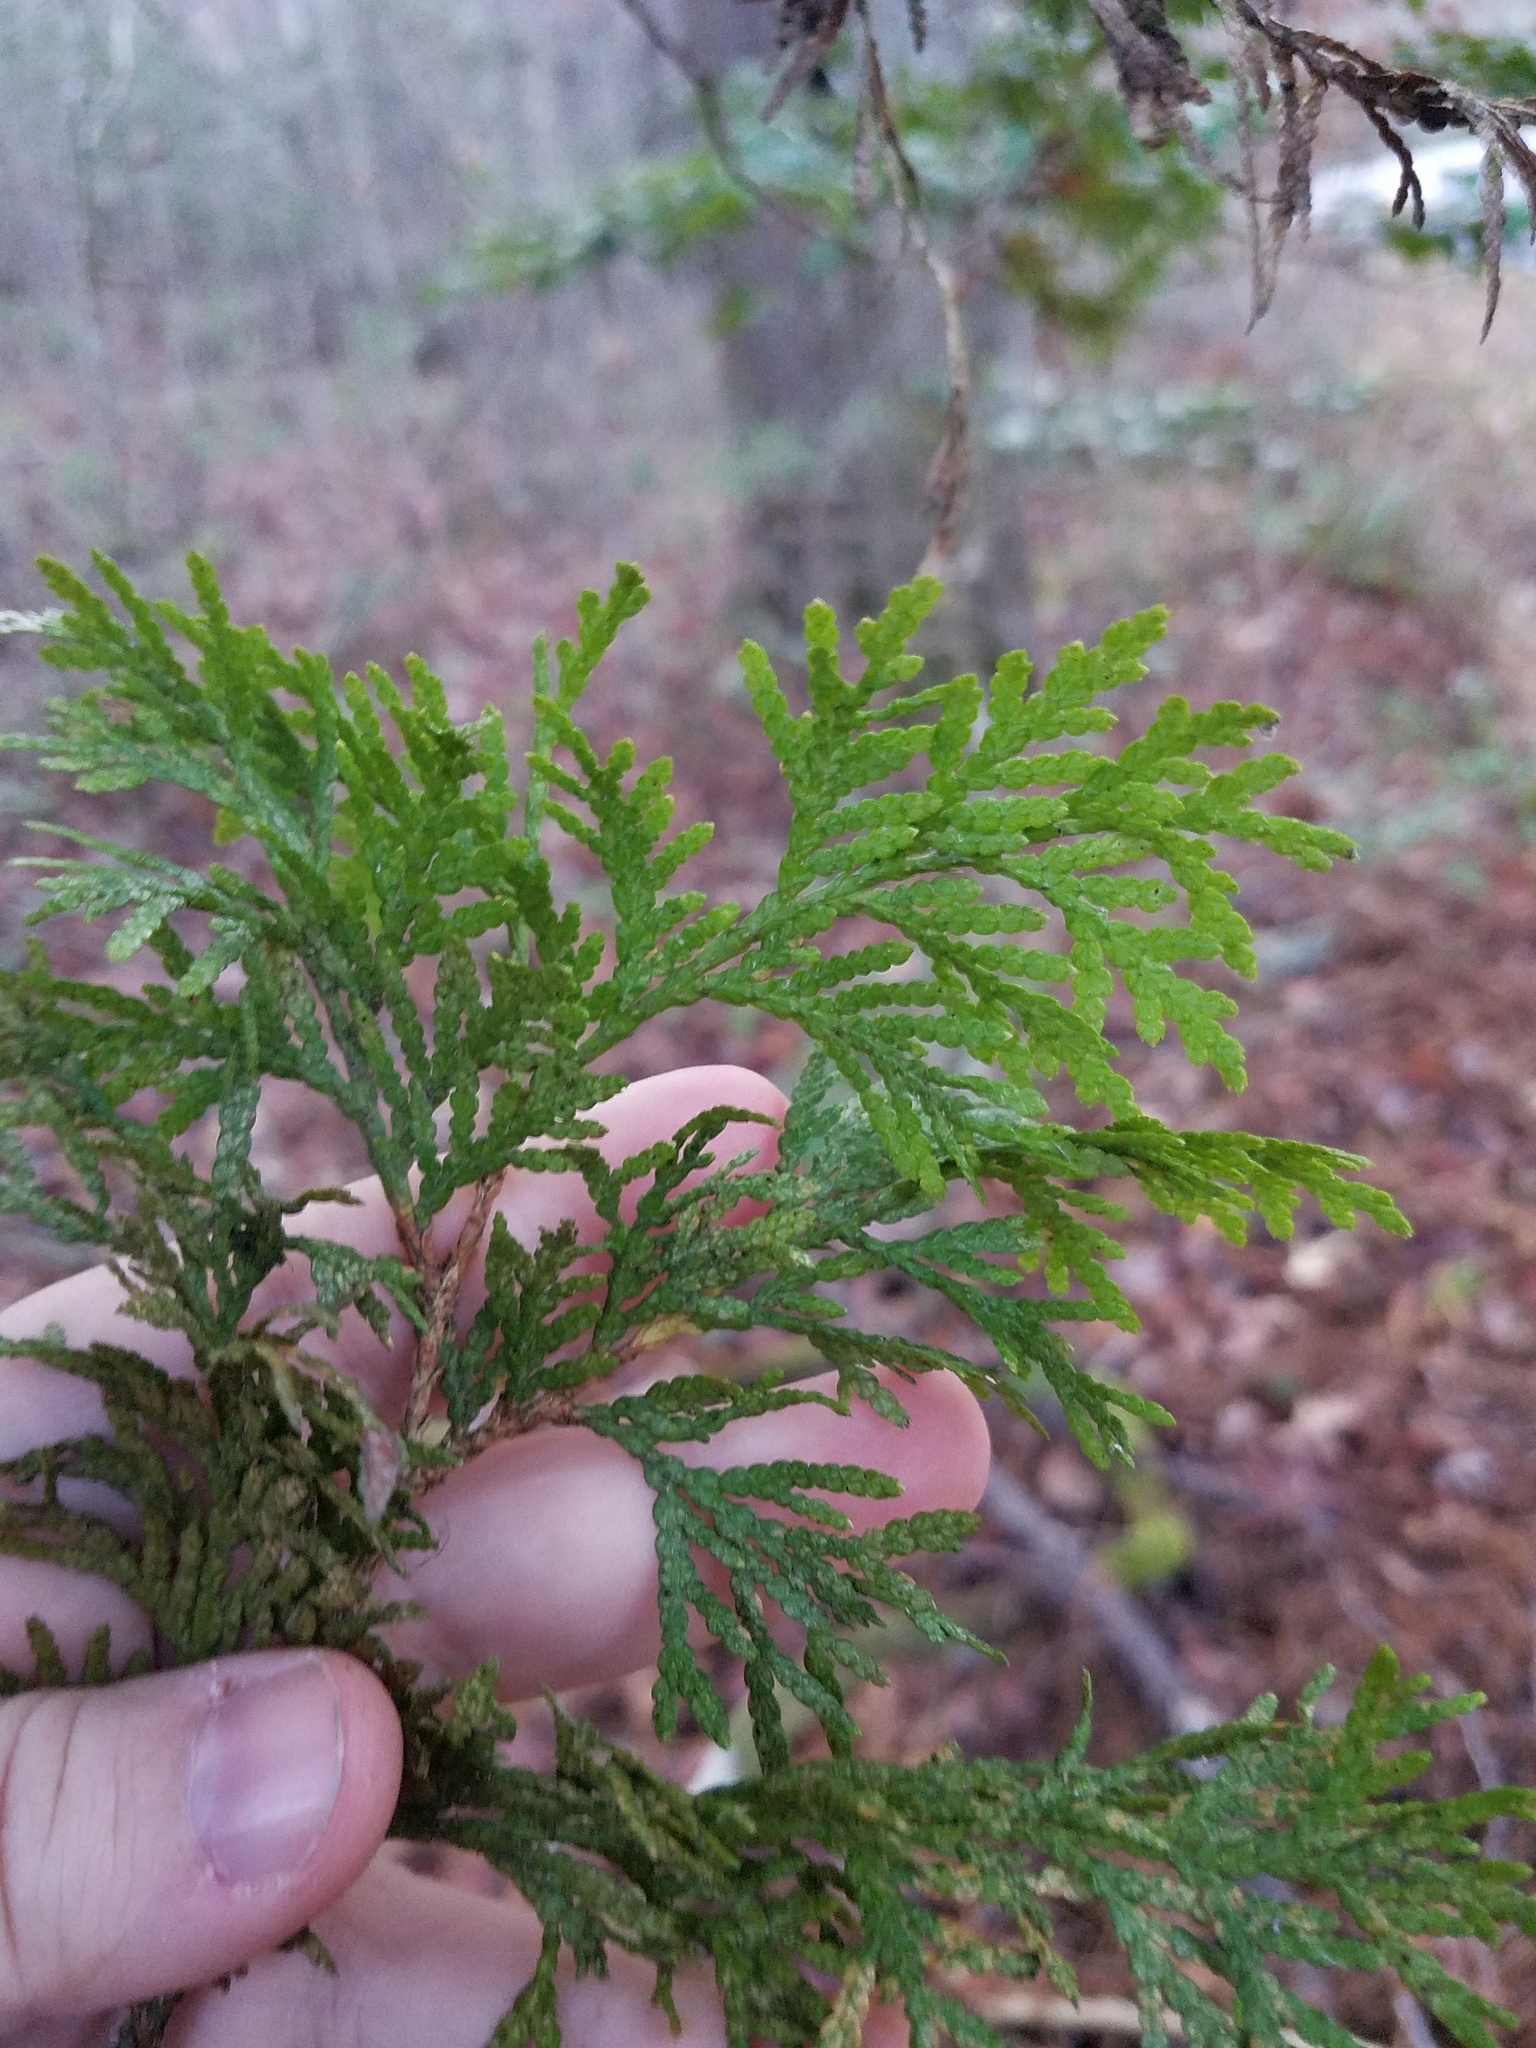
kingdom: Plantae
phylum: Tracheophyta
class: Pinopsida
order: Pinales
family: Cupressaceae
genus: Thuja
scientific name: Thuja occidentalis
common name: Northern white-cedar
